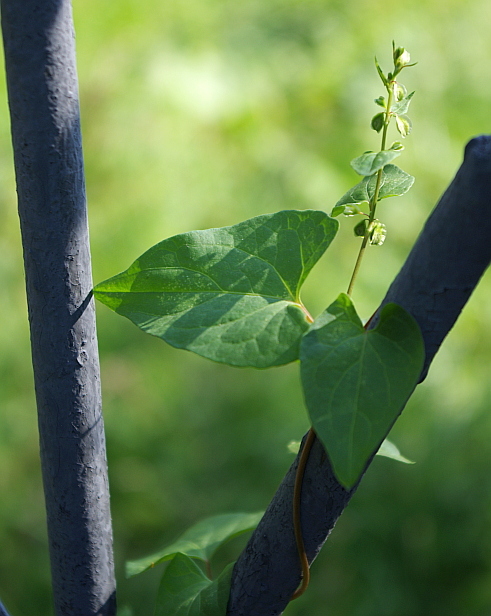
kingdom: Plantae
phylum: Tracheophyta
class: Magnoliopsida
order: Caryophyllales
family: Polygonaceae
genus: Fallopia
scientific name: Fallopia convolvulus
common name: Black bindweed
